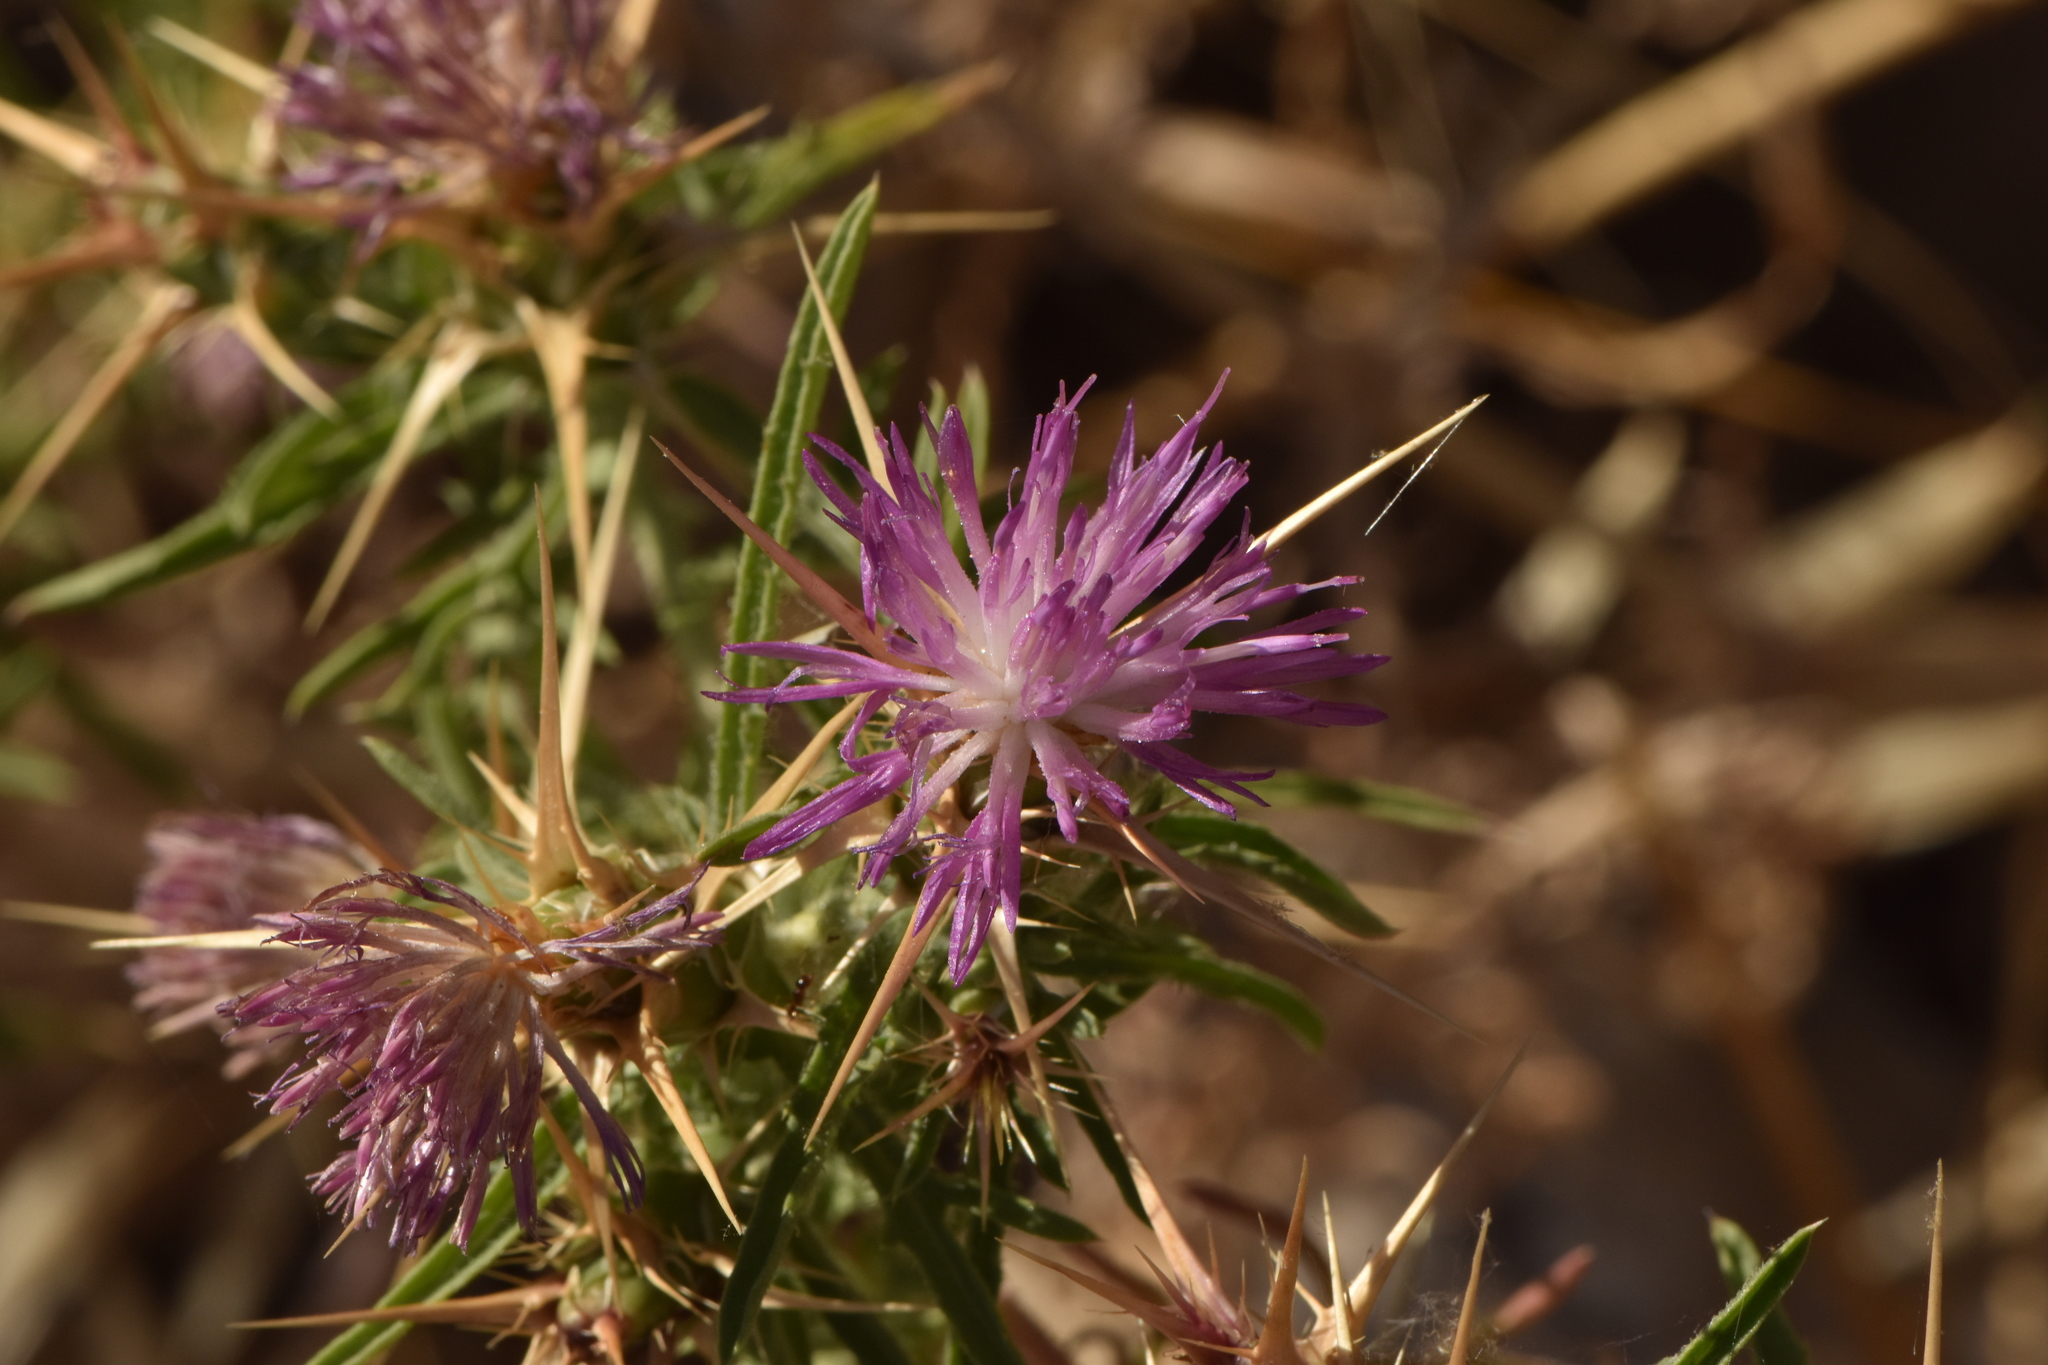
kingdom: Plantae
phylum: Tracheophyta
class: Magnoliopsida
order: Asterales
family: Asteraceae
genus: Centaurea
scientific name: Centaurea calcitrapa
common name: Red star-thistle
